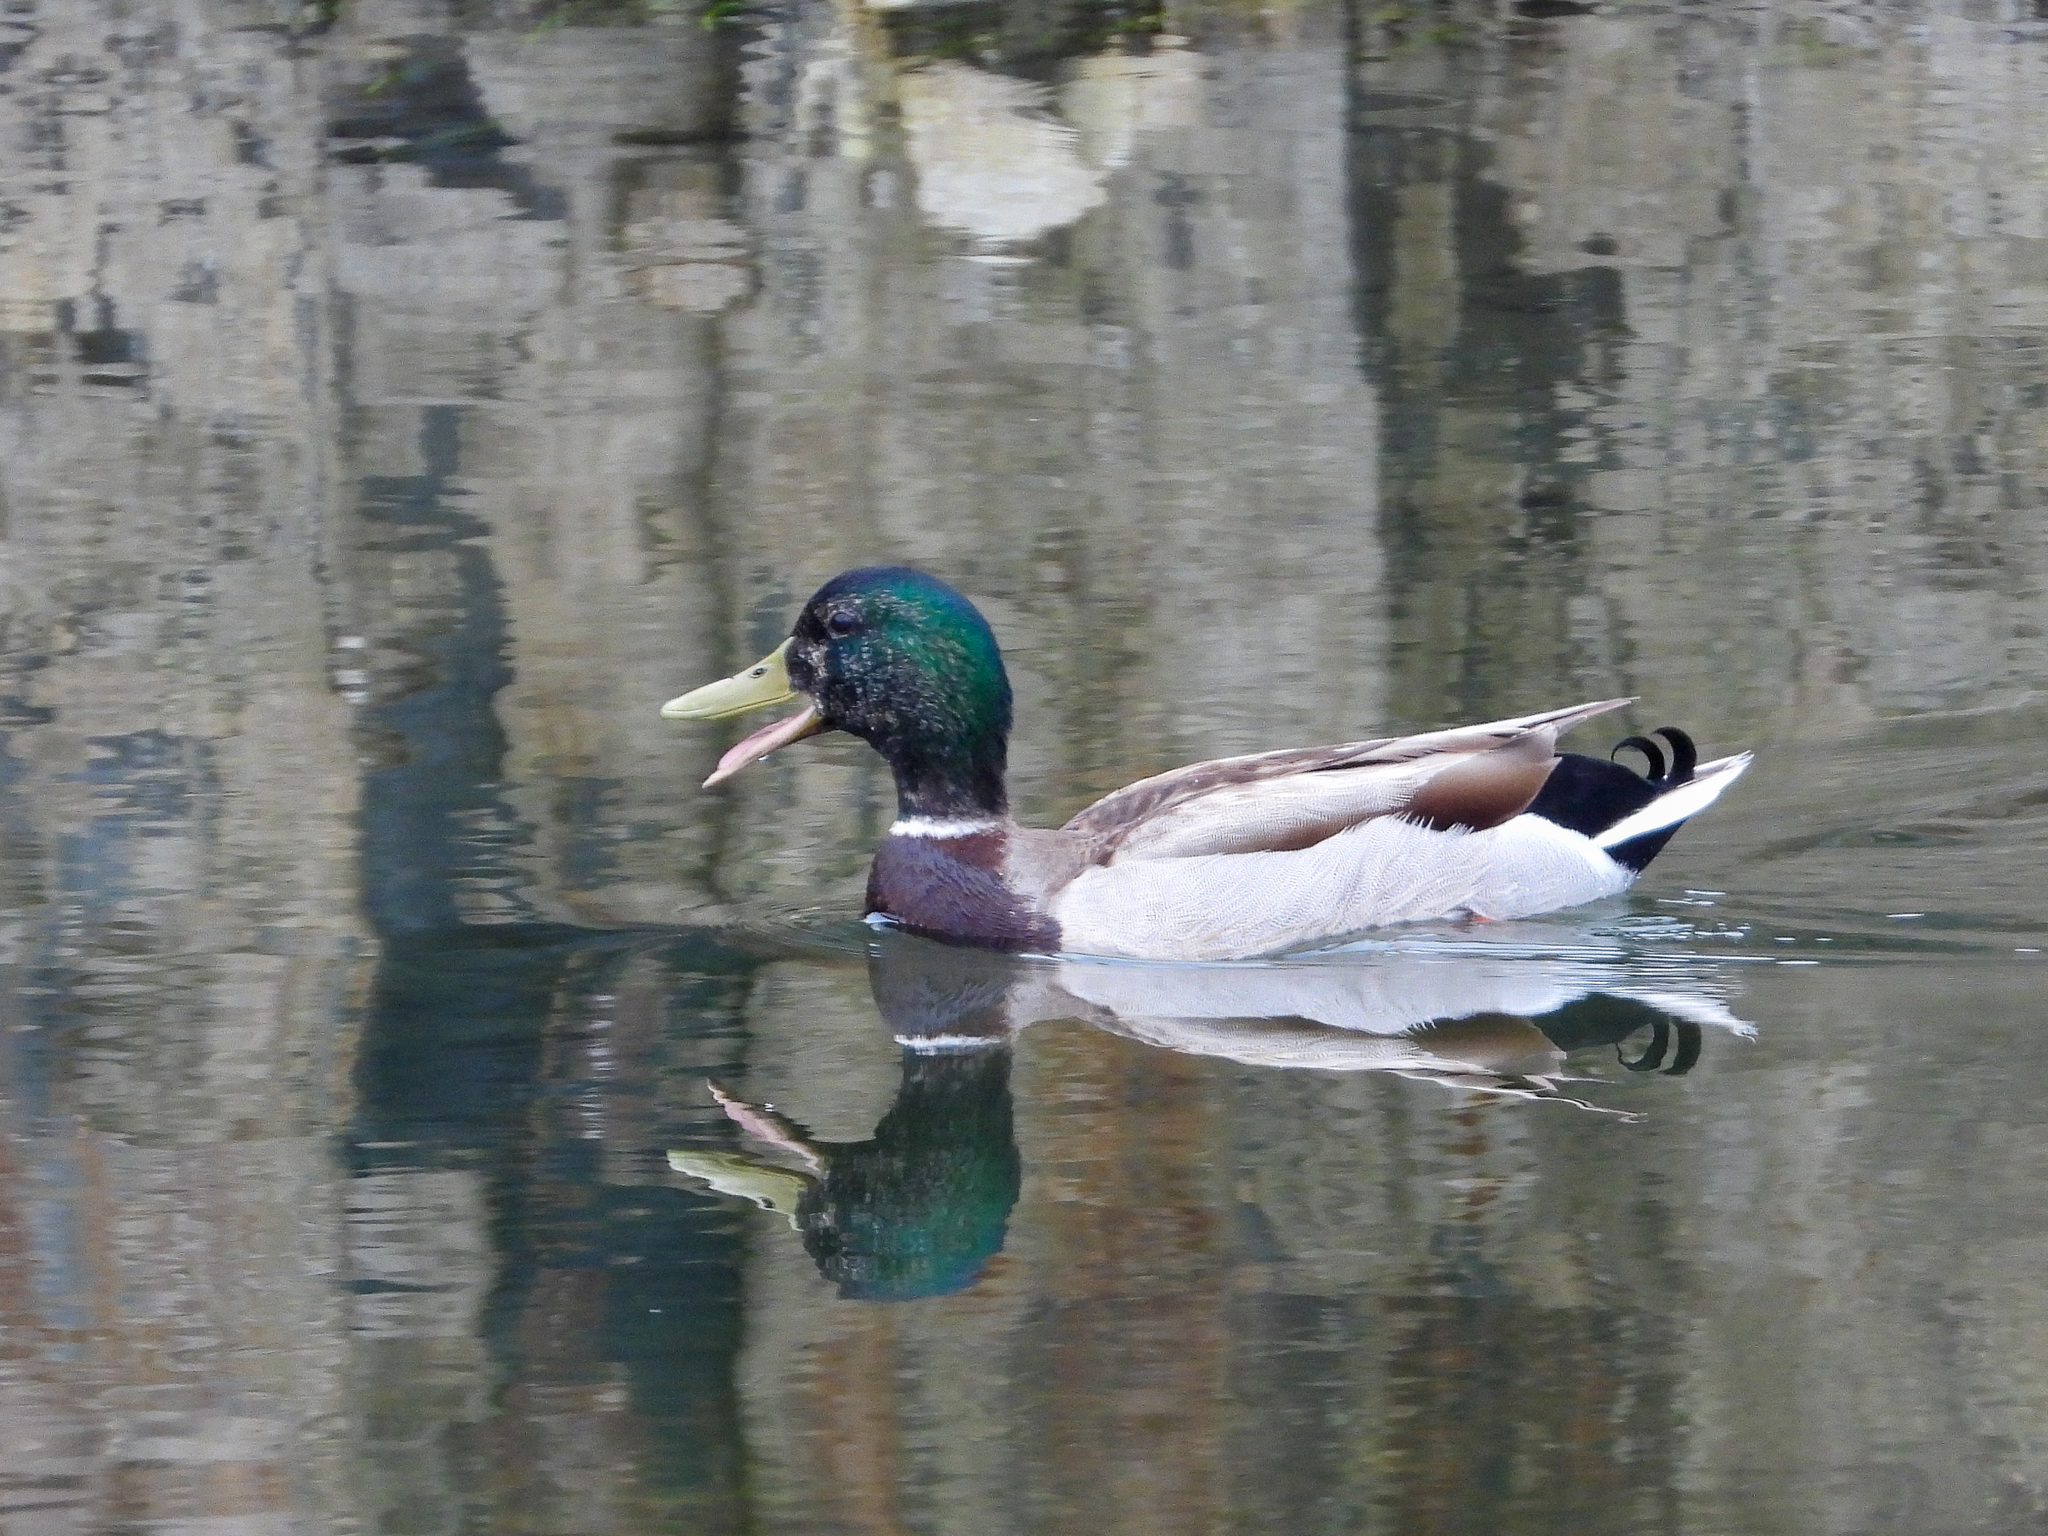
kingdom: Animalia
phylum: Chordata
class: Aves
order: Anseriformes
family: Anatidae
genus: Anas
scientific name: Anas platyrhynchos
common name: Mallard
